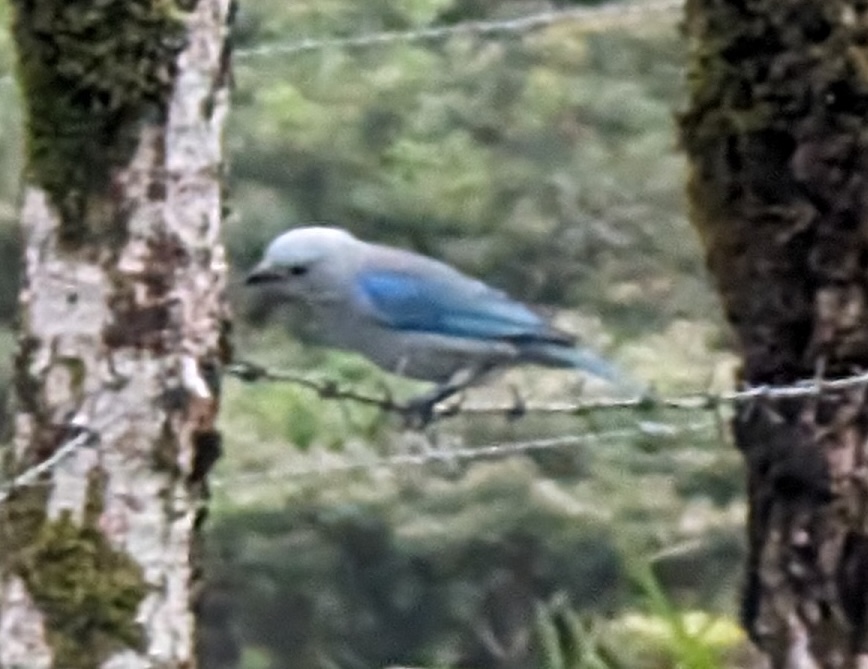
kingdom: Animalia
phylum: Chordata
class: Aves
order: Passeriformes
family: Thraupidae
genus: Thraupis
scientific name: Thraupis episcopus
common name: Blue-grey tanager
